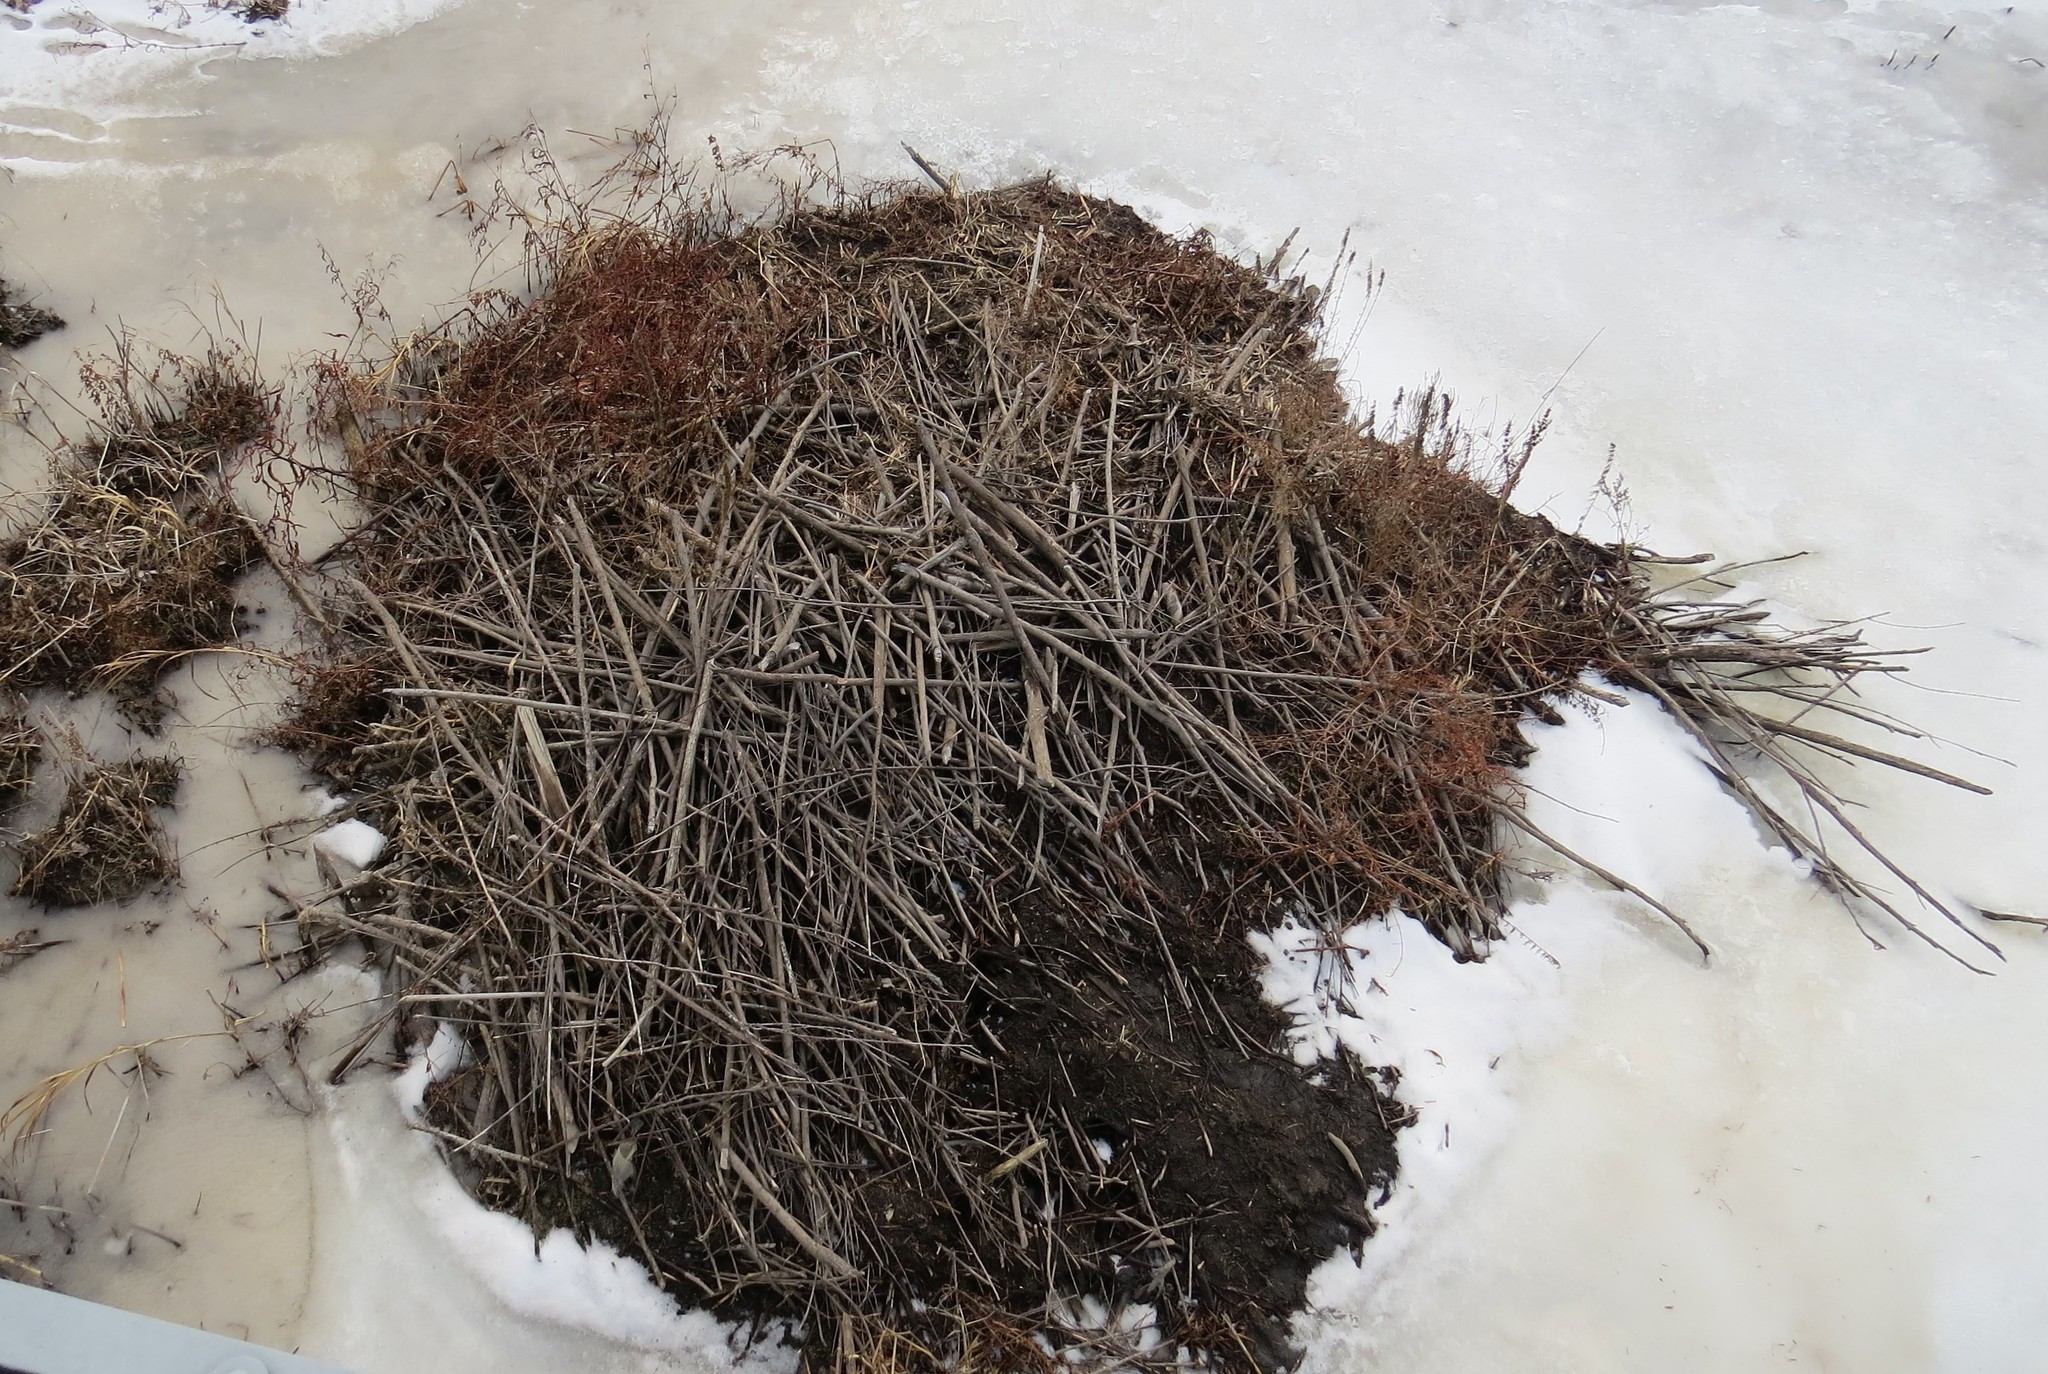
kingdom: Animalia
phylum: Chordata
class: Mammalia
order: Rodentia
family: Castoridae
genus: Castor
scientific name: Castor canadensis
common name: American beaver
